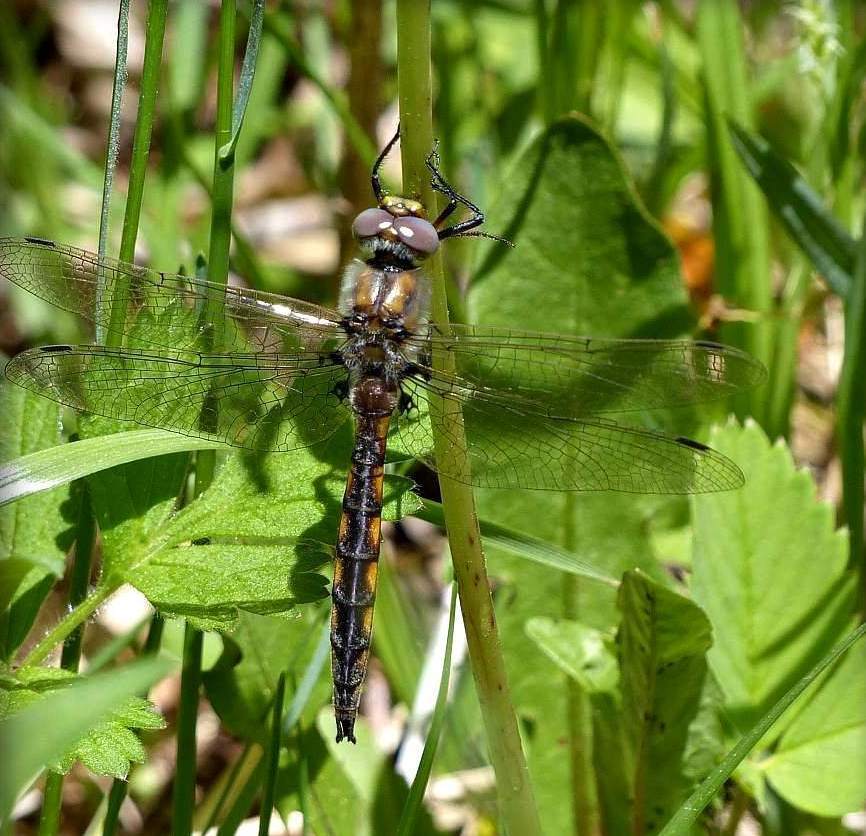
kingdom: Animalia
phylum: Arthropoda
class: Insecta
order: Odonata
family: Corduliidae
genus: Epitheca
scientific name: Epitheca canis
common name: Beaverpond baskettail
